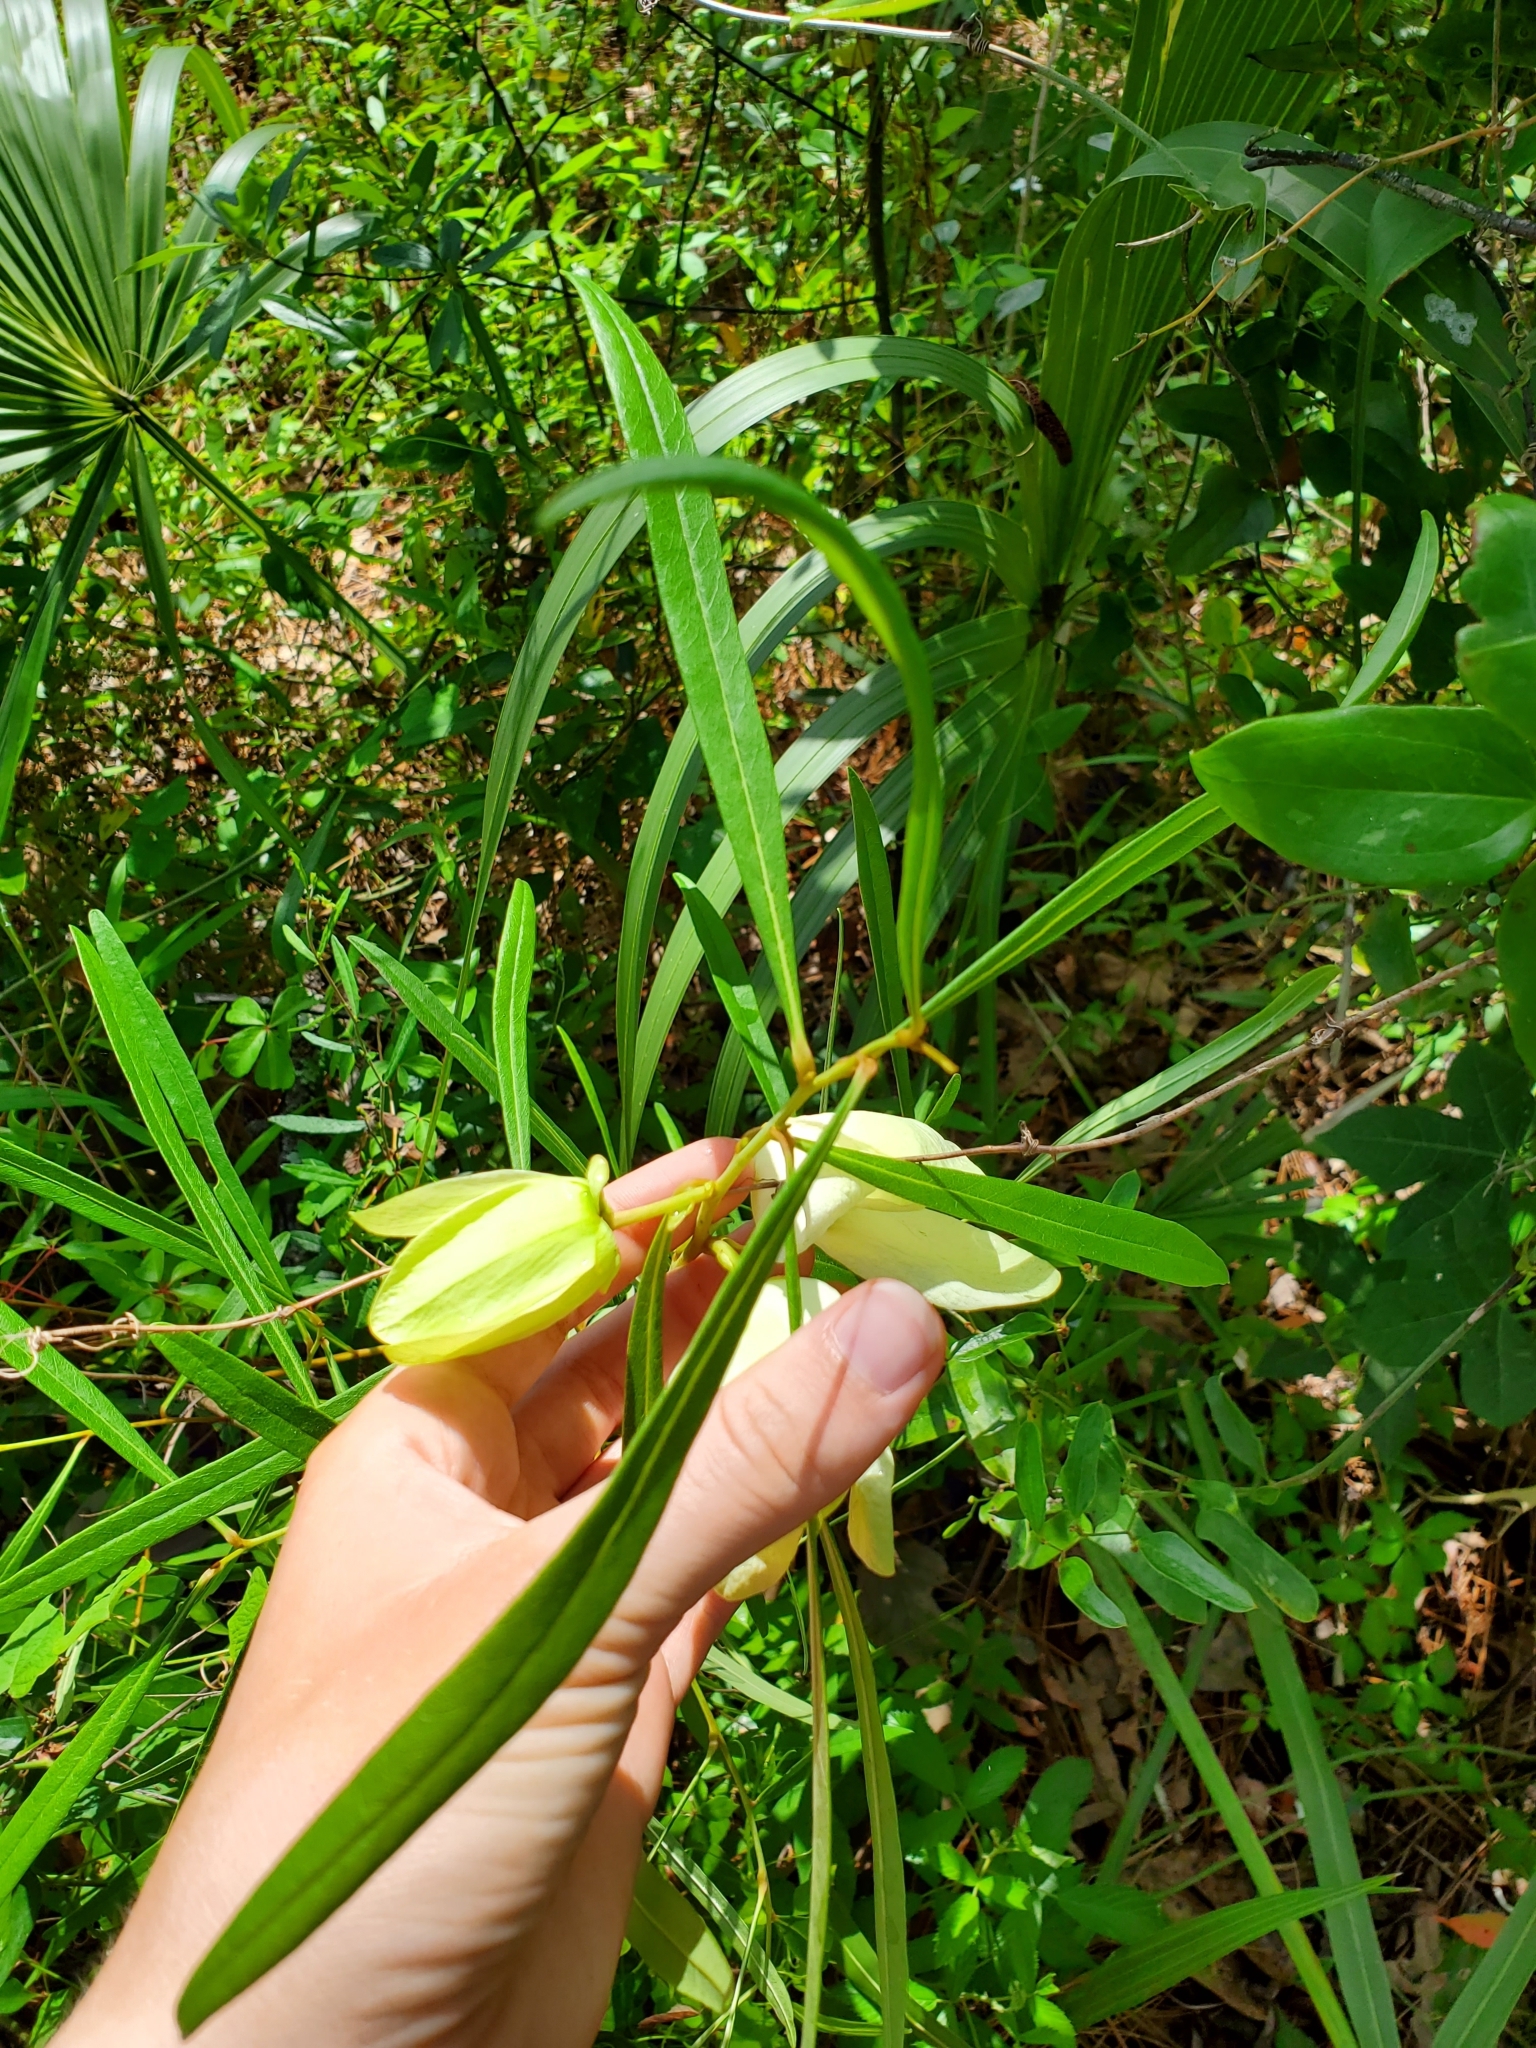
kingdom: Plantae
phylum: Tracheophyta
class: Magnoliopsida
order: Magnoliales
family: Annonaceae
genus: Asimina
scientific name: Asimina longifolia
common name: Polecatbush
